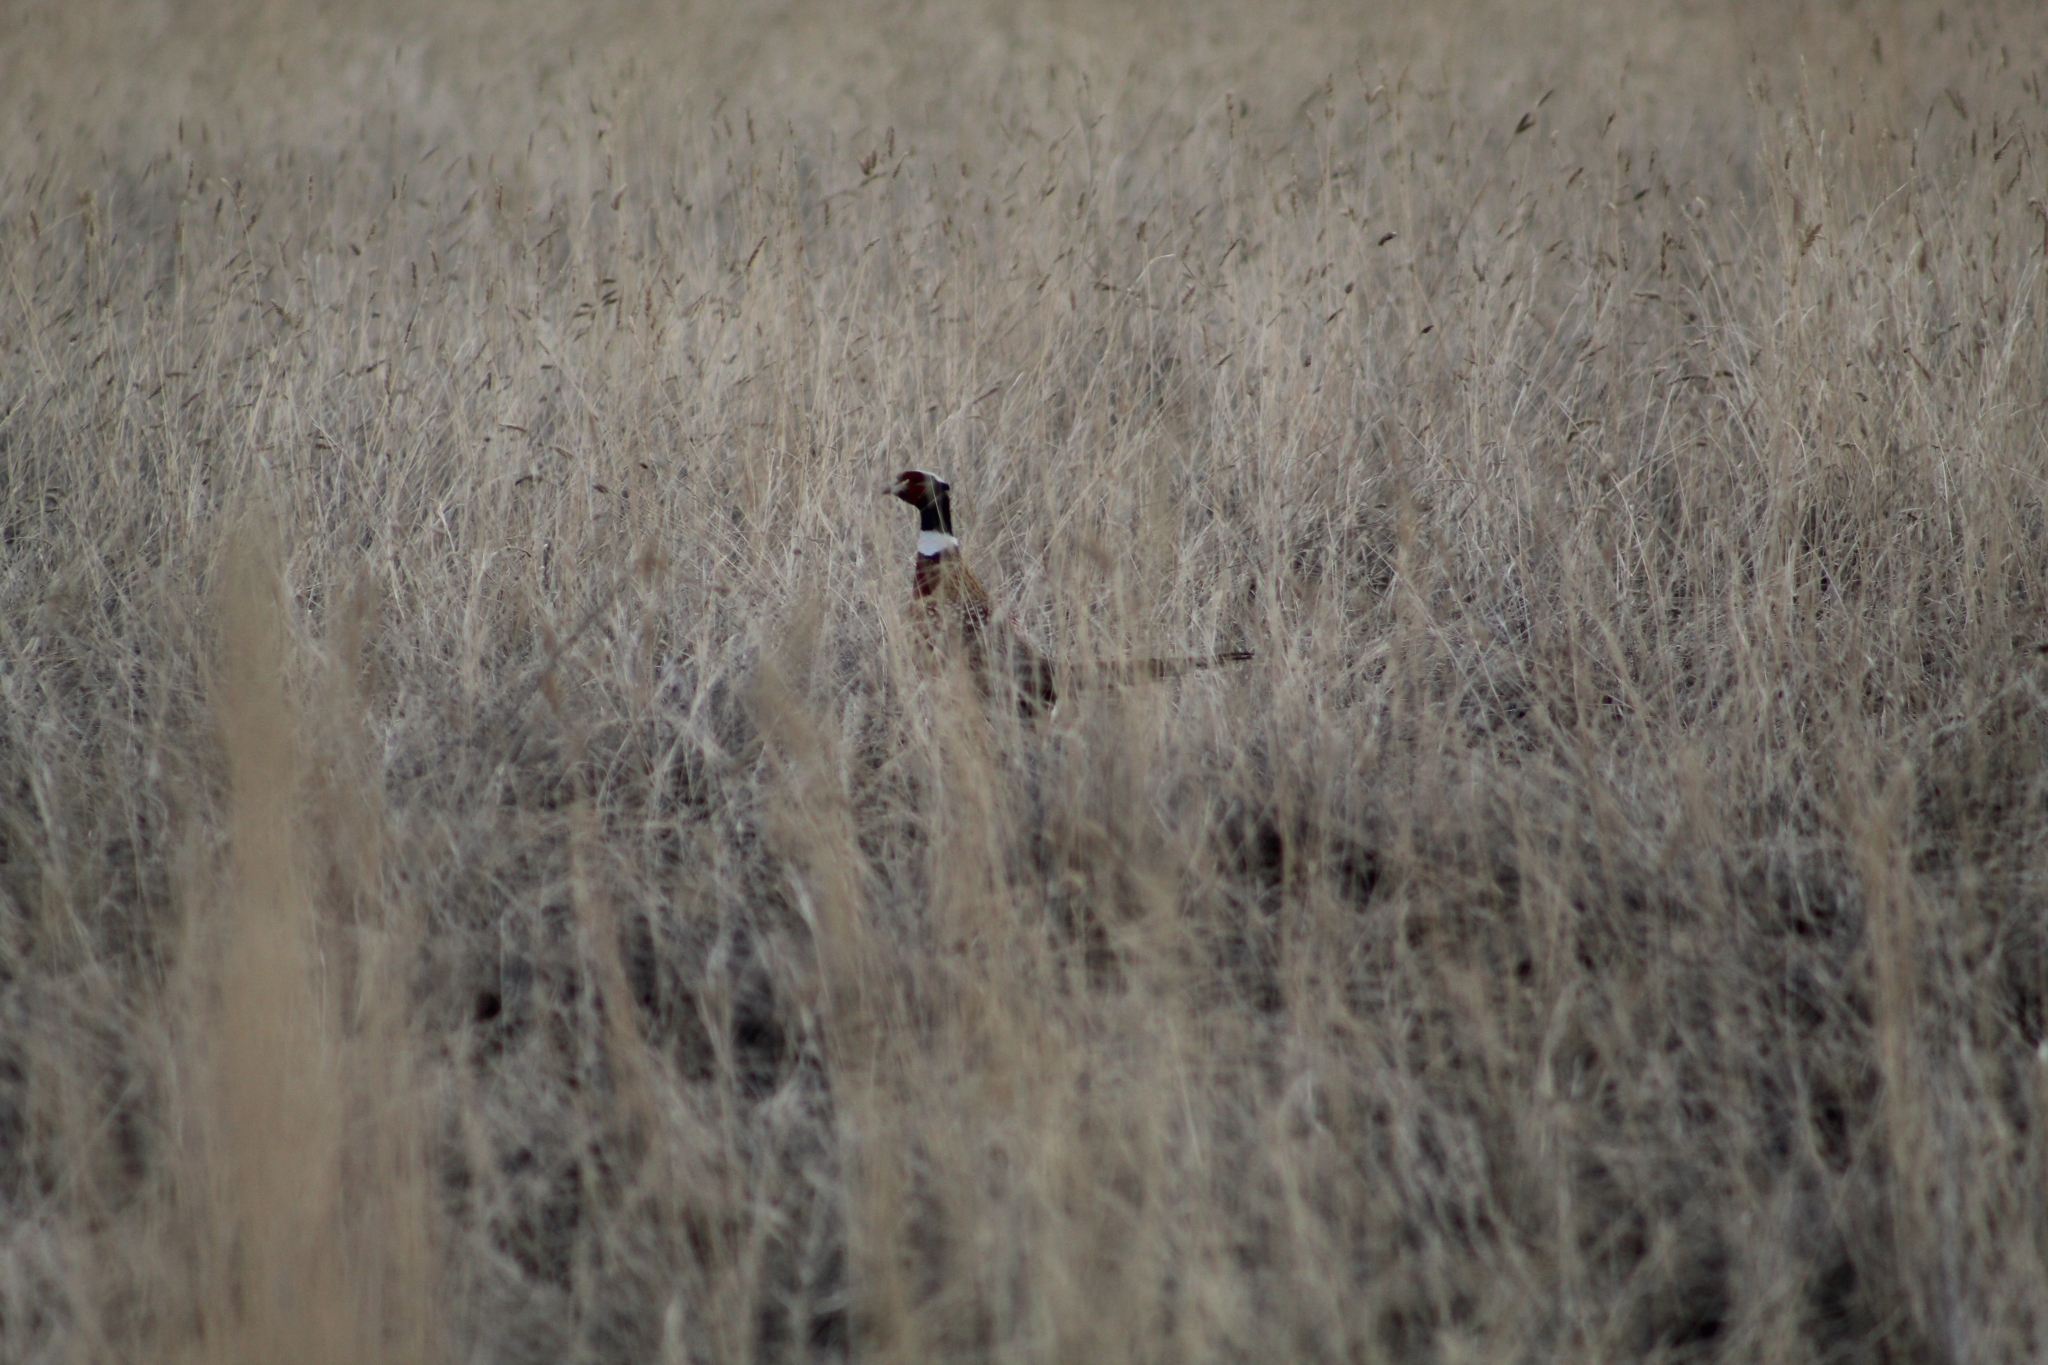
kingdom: Animalia
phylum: Chordata
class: Aves
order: Galliformes
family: Phasianidae
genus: Phasianus
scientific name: Phasianus colchicus
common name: Common pheasant
